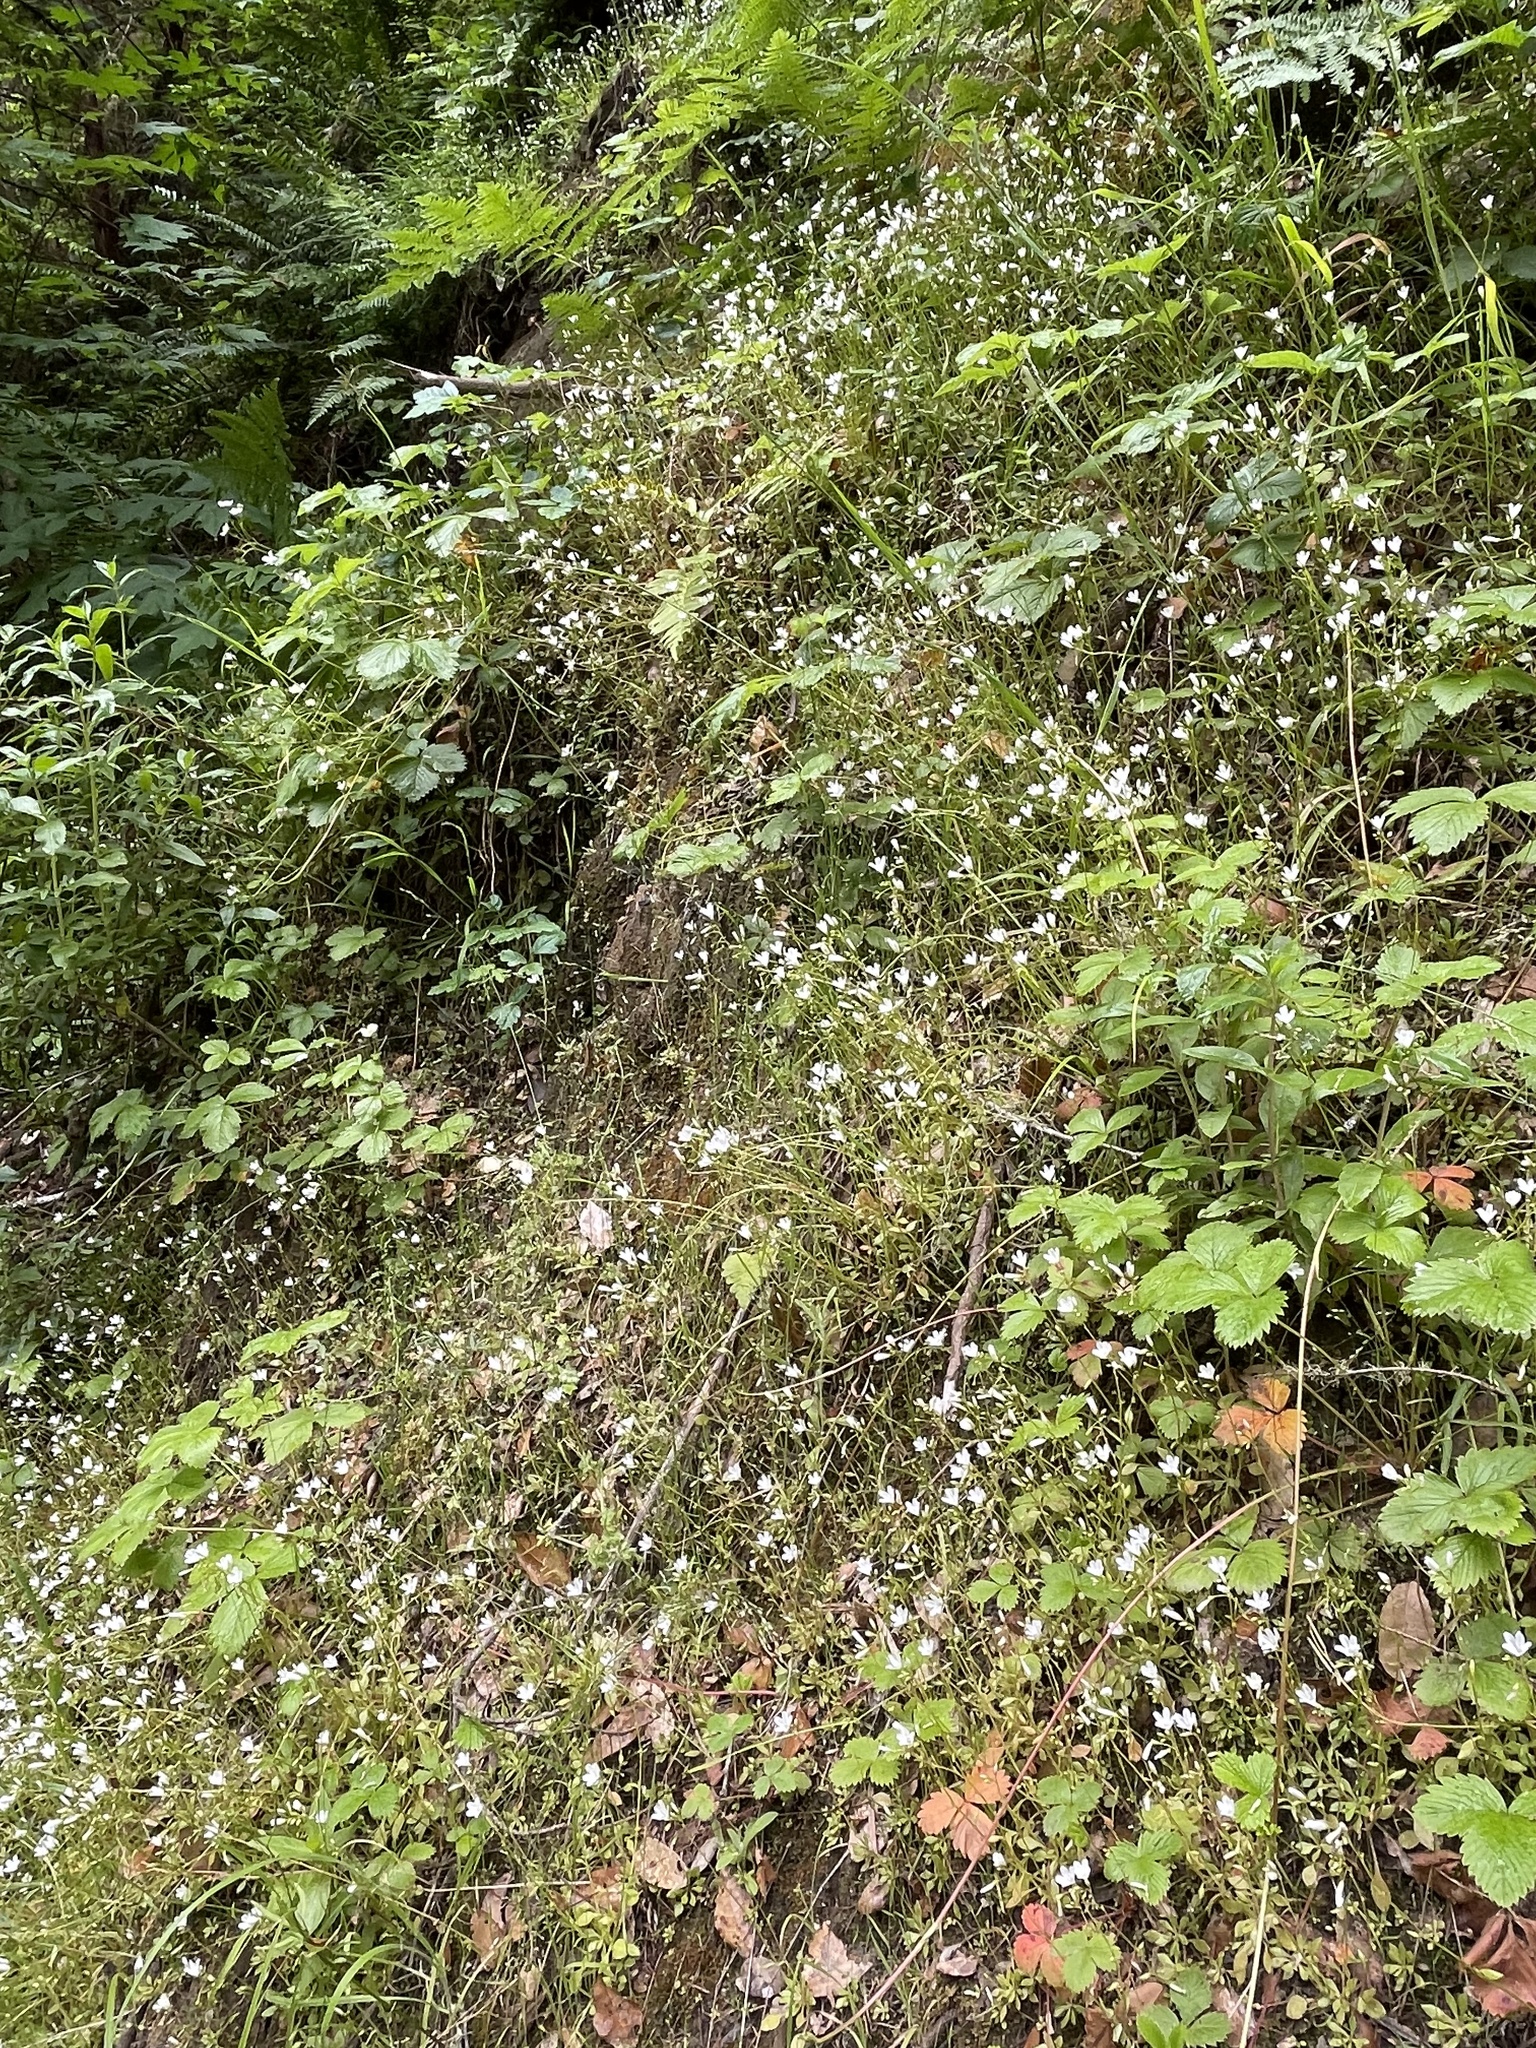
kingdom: Plantae
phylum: Tracheophyta
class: Magnoliopsida
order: Caryophyllales
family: Montiaceae
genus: Montia
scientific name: Montia parvifolia
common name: Small-leaved blinks
